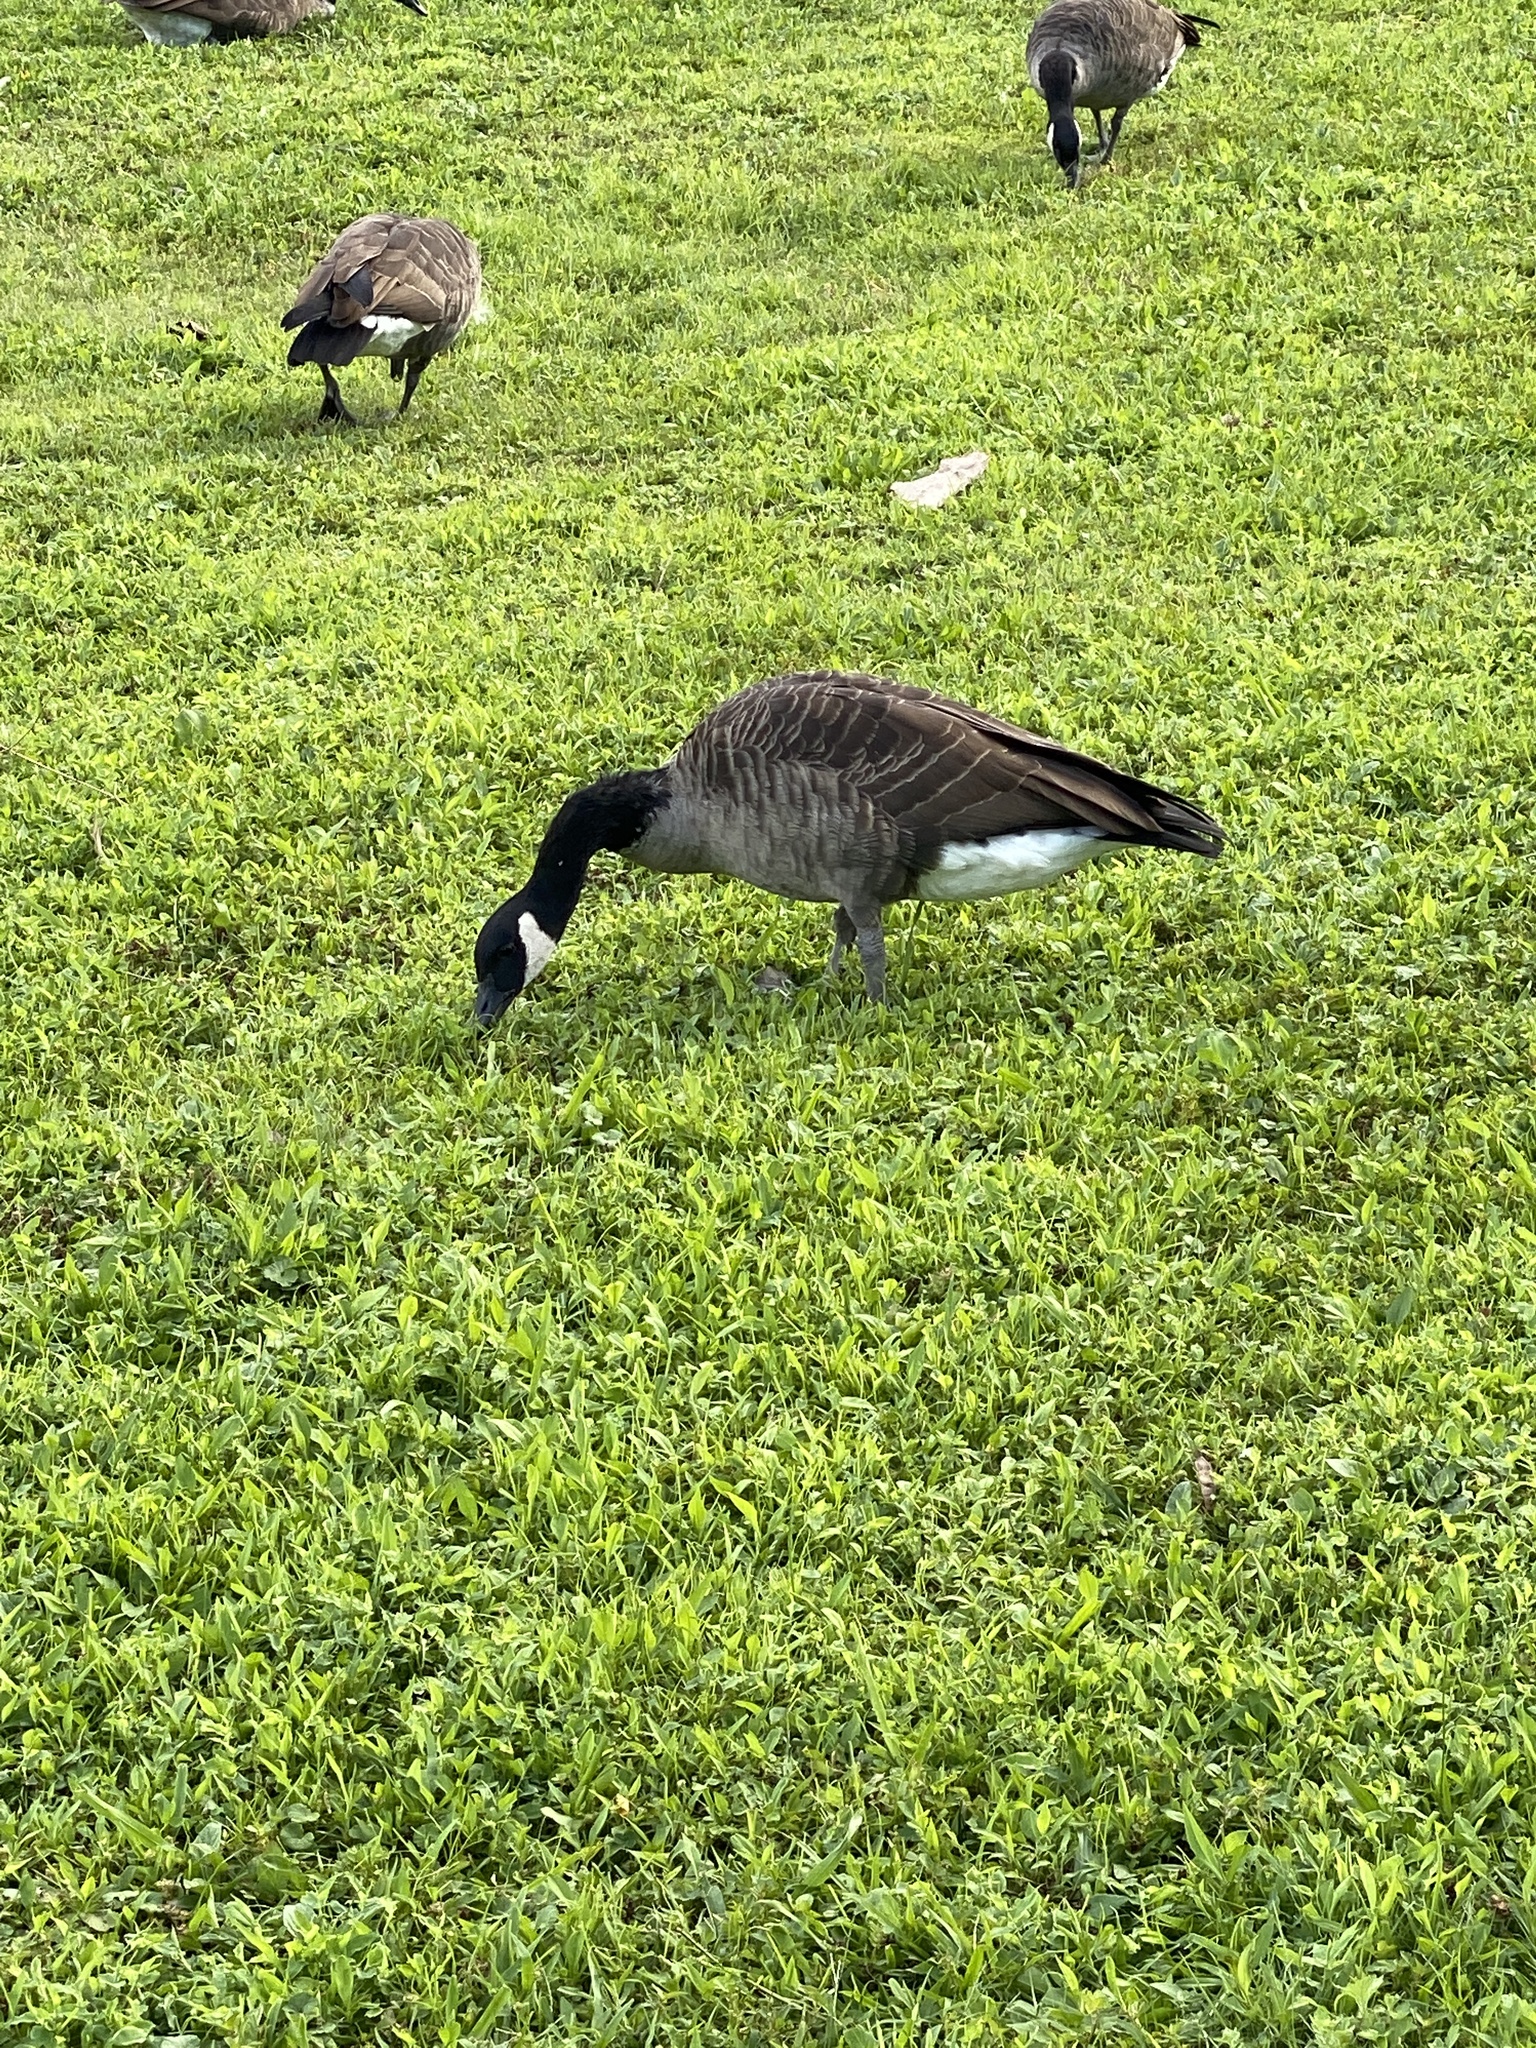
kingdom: Animalia
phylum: Chordata
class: Aves
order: Anseriformes
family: Anatidae
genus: Branta
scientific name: Branta canadensis
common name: Canada goose
